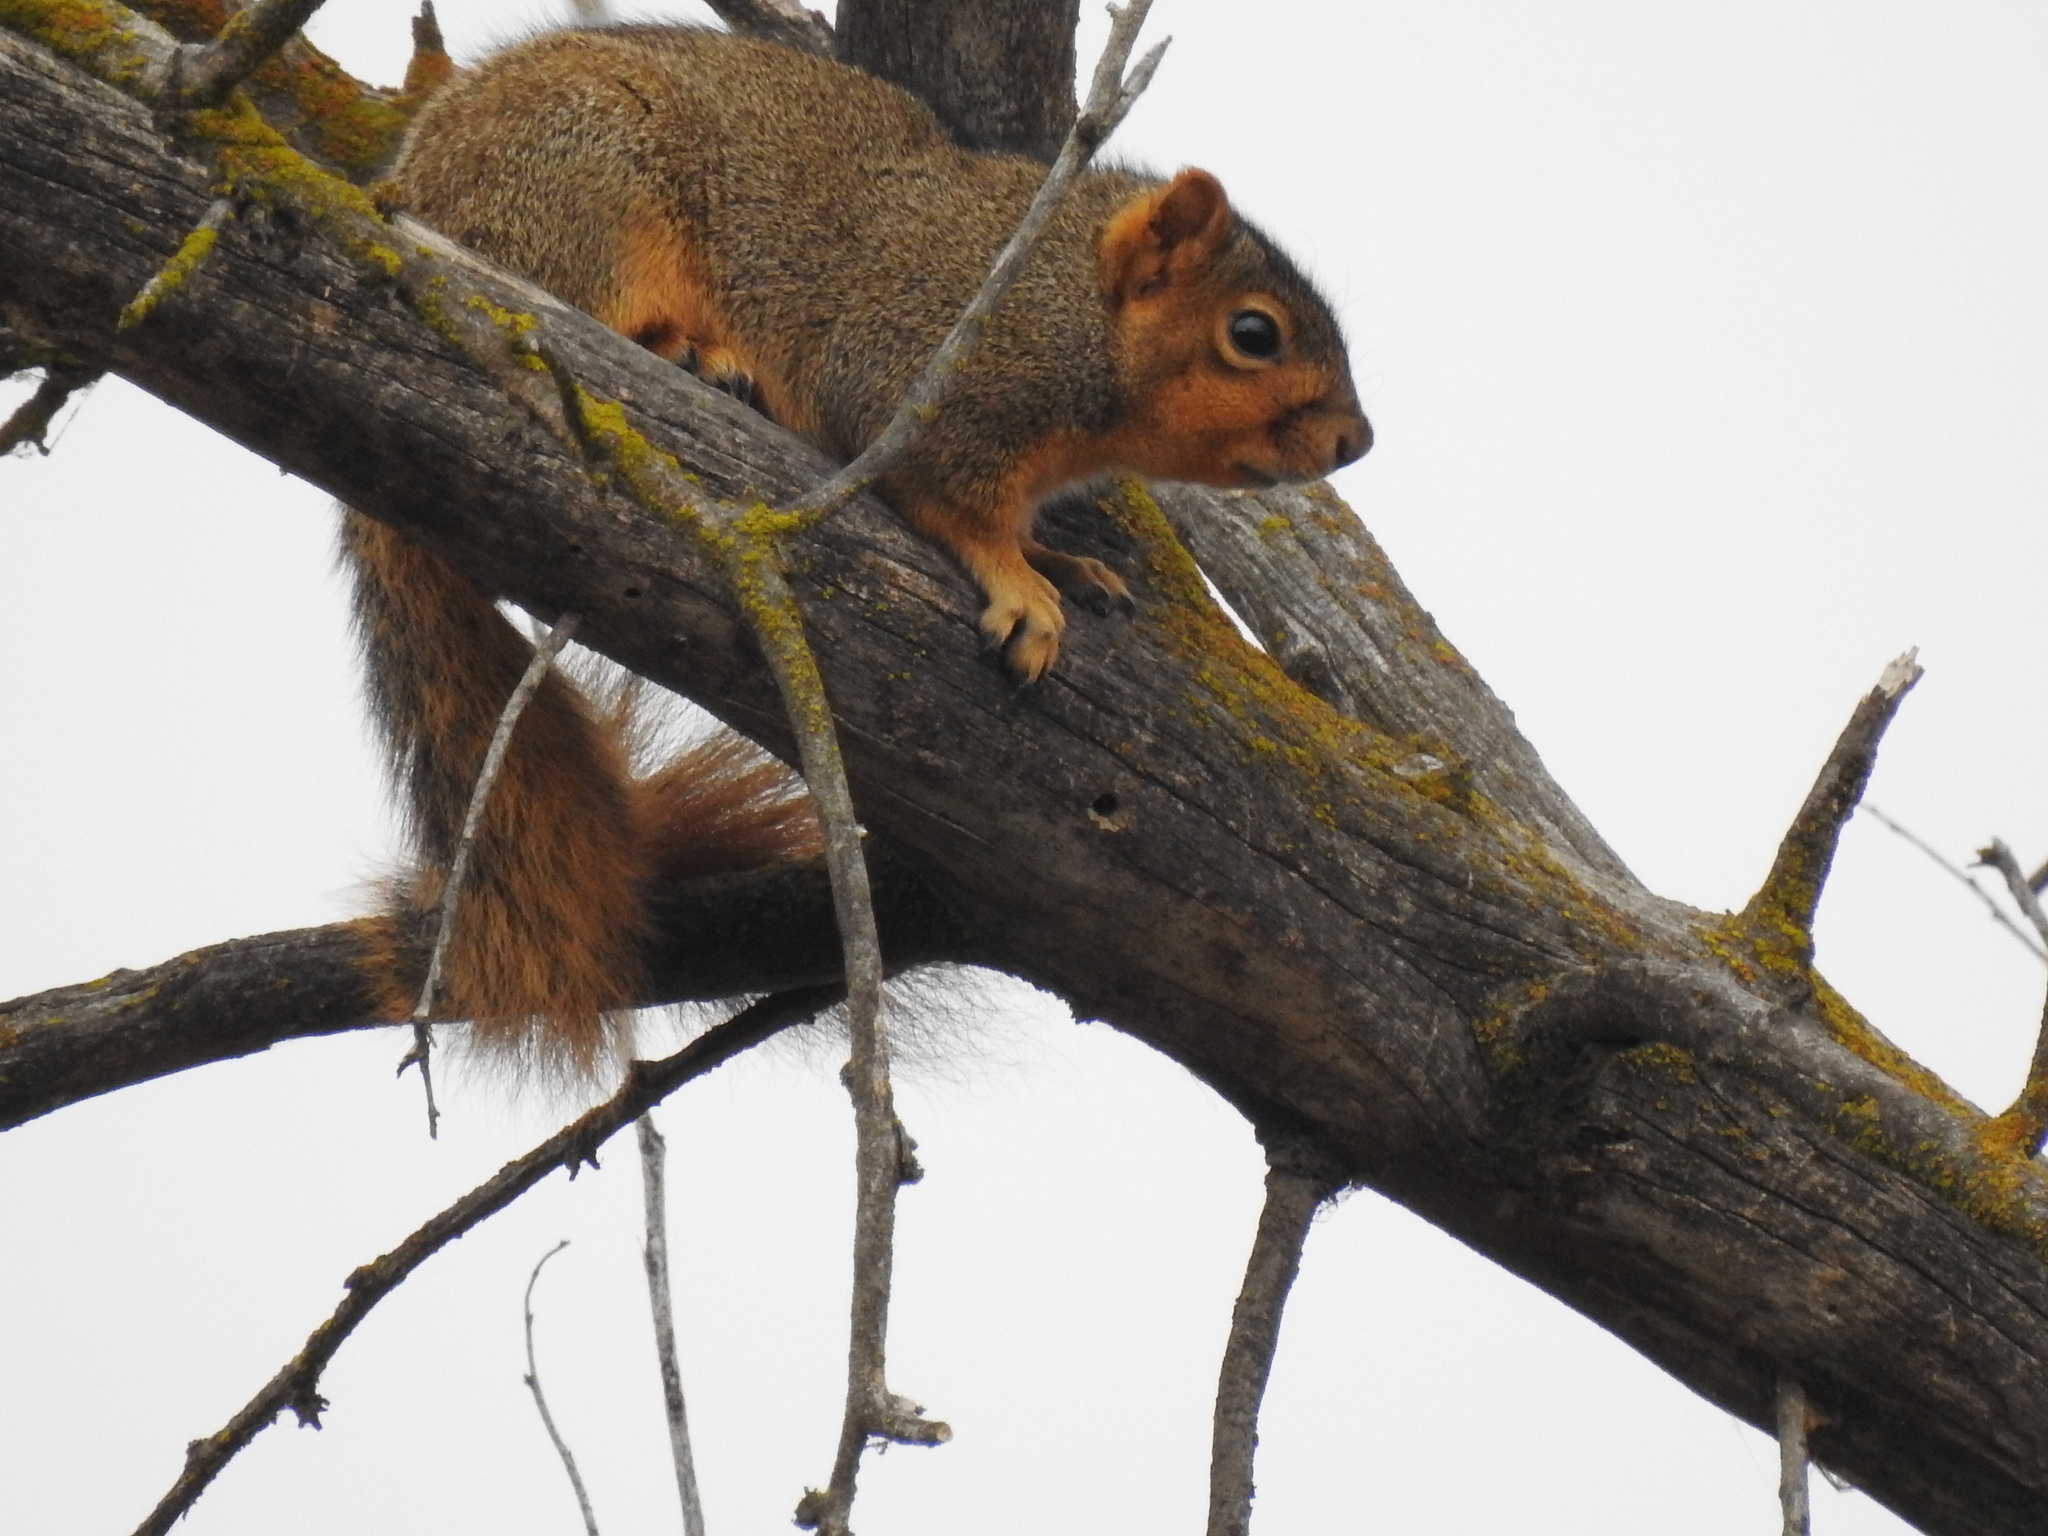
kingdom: Animalia
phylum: Chordata
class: Mammalia
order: Rodentia
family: Sciuridae
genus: Sciurus
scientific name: Sciurus niger
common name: Fox squirrel
